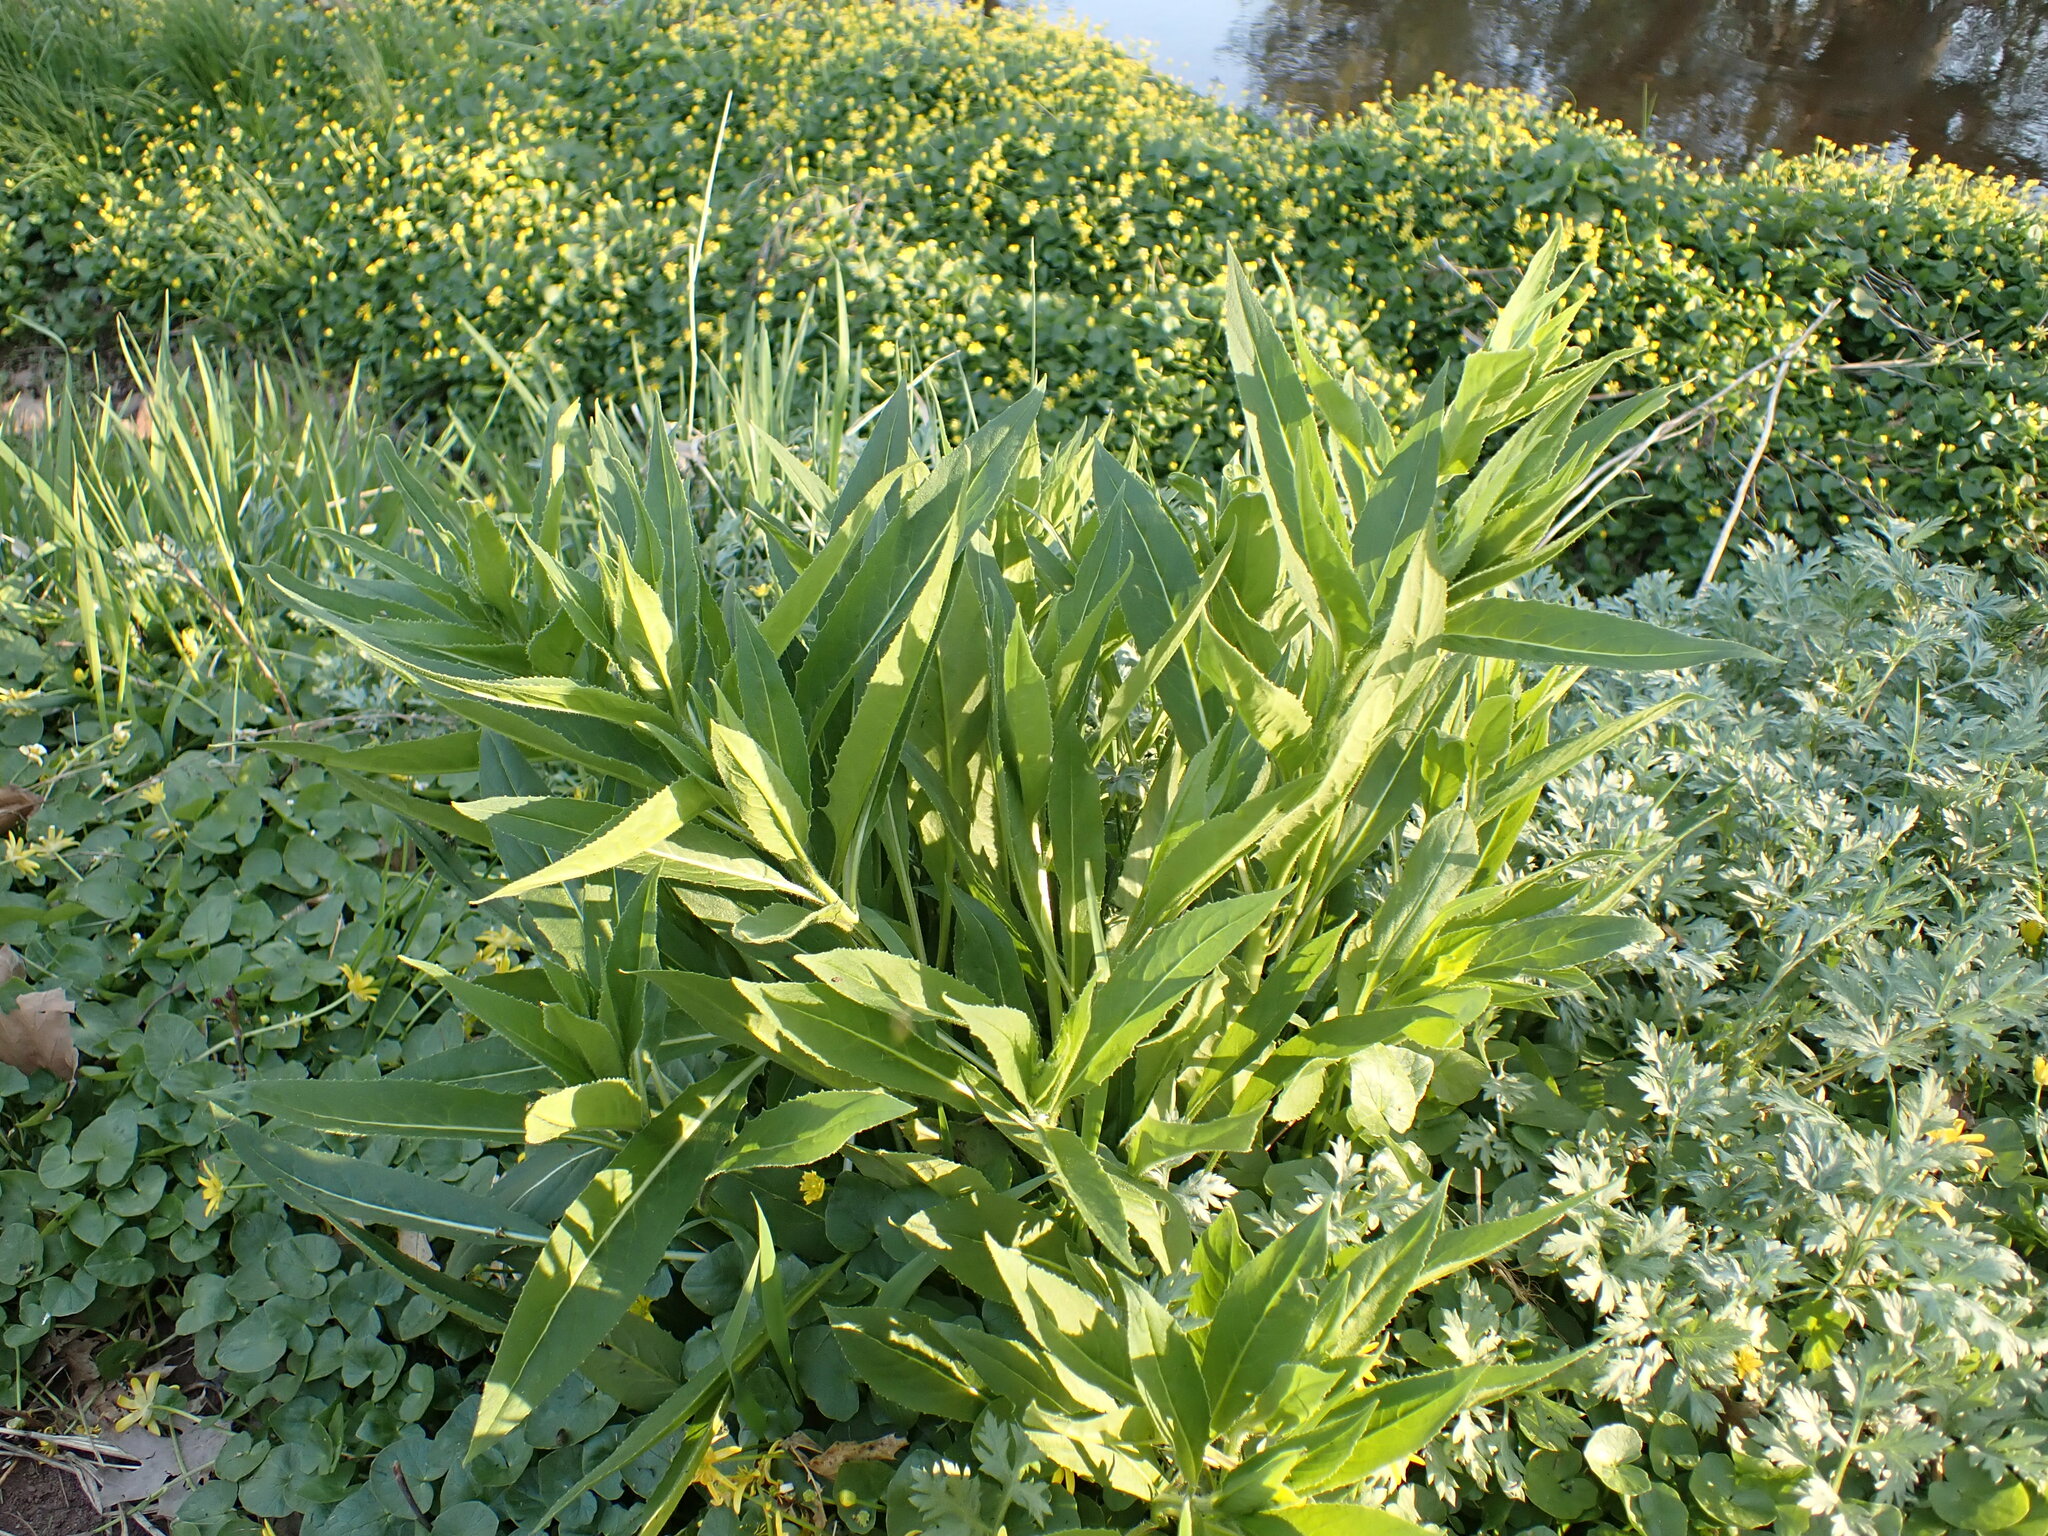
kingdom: Plantae
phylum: Tracheophyta
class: Magnoliopsida
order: Brassicales
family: Brassicaceae
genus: Hesperis
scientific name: Hesperis matronalis
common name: Dame's-violet
